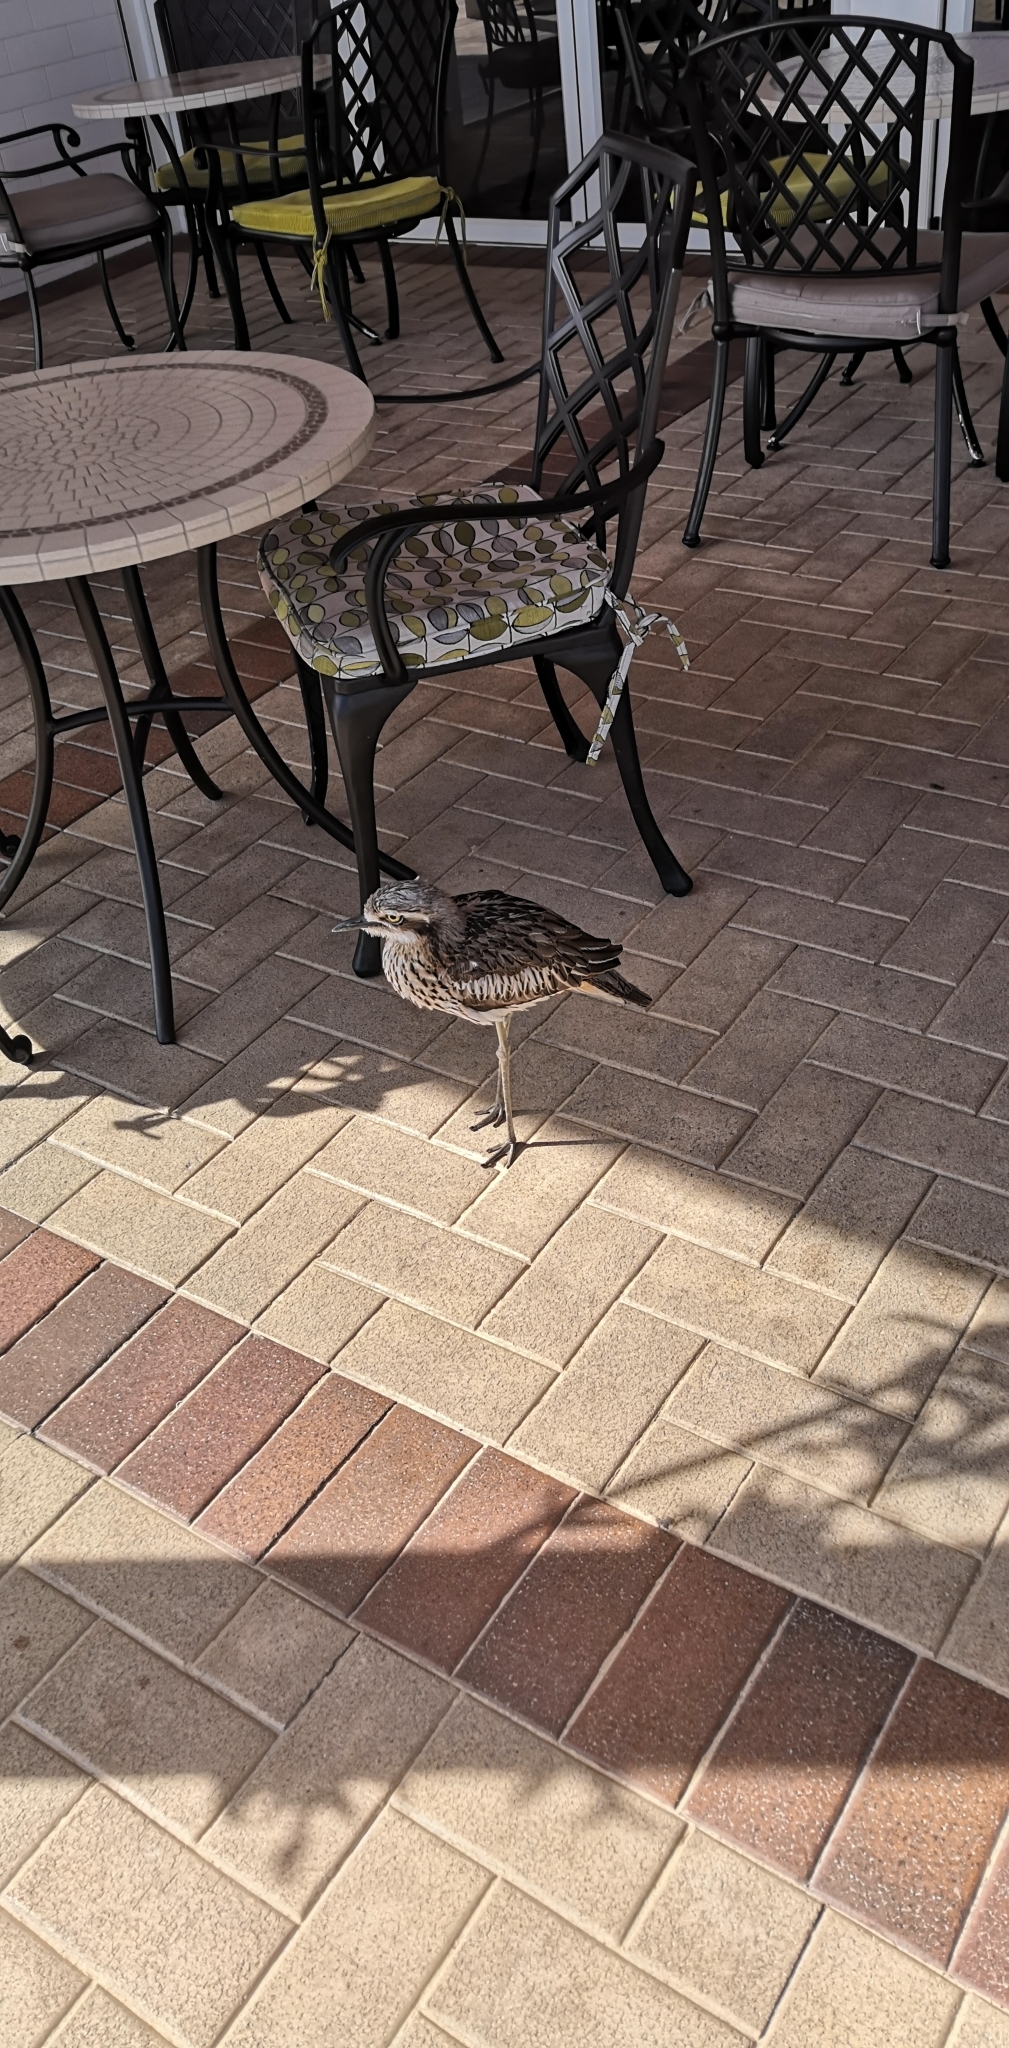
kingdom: Animalia
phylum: Chordata
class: Aves
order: Charadriiformes
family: Burhinidae
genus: Burhinus
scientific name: Burhinus grallarius
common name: Bush stone-curlew
